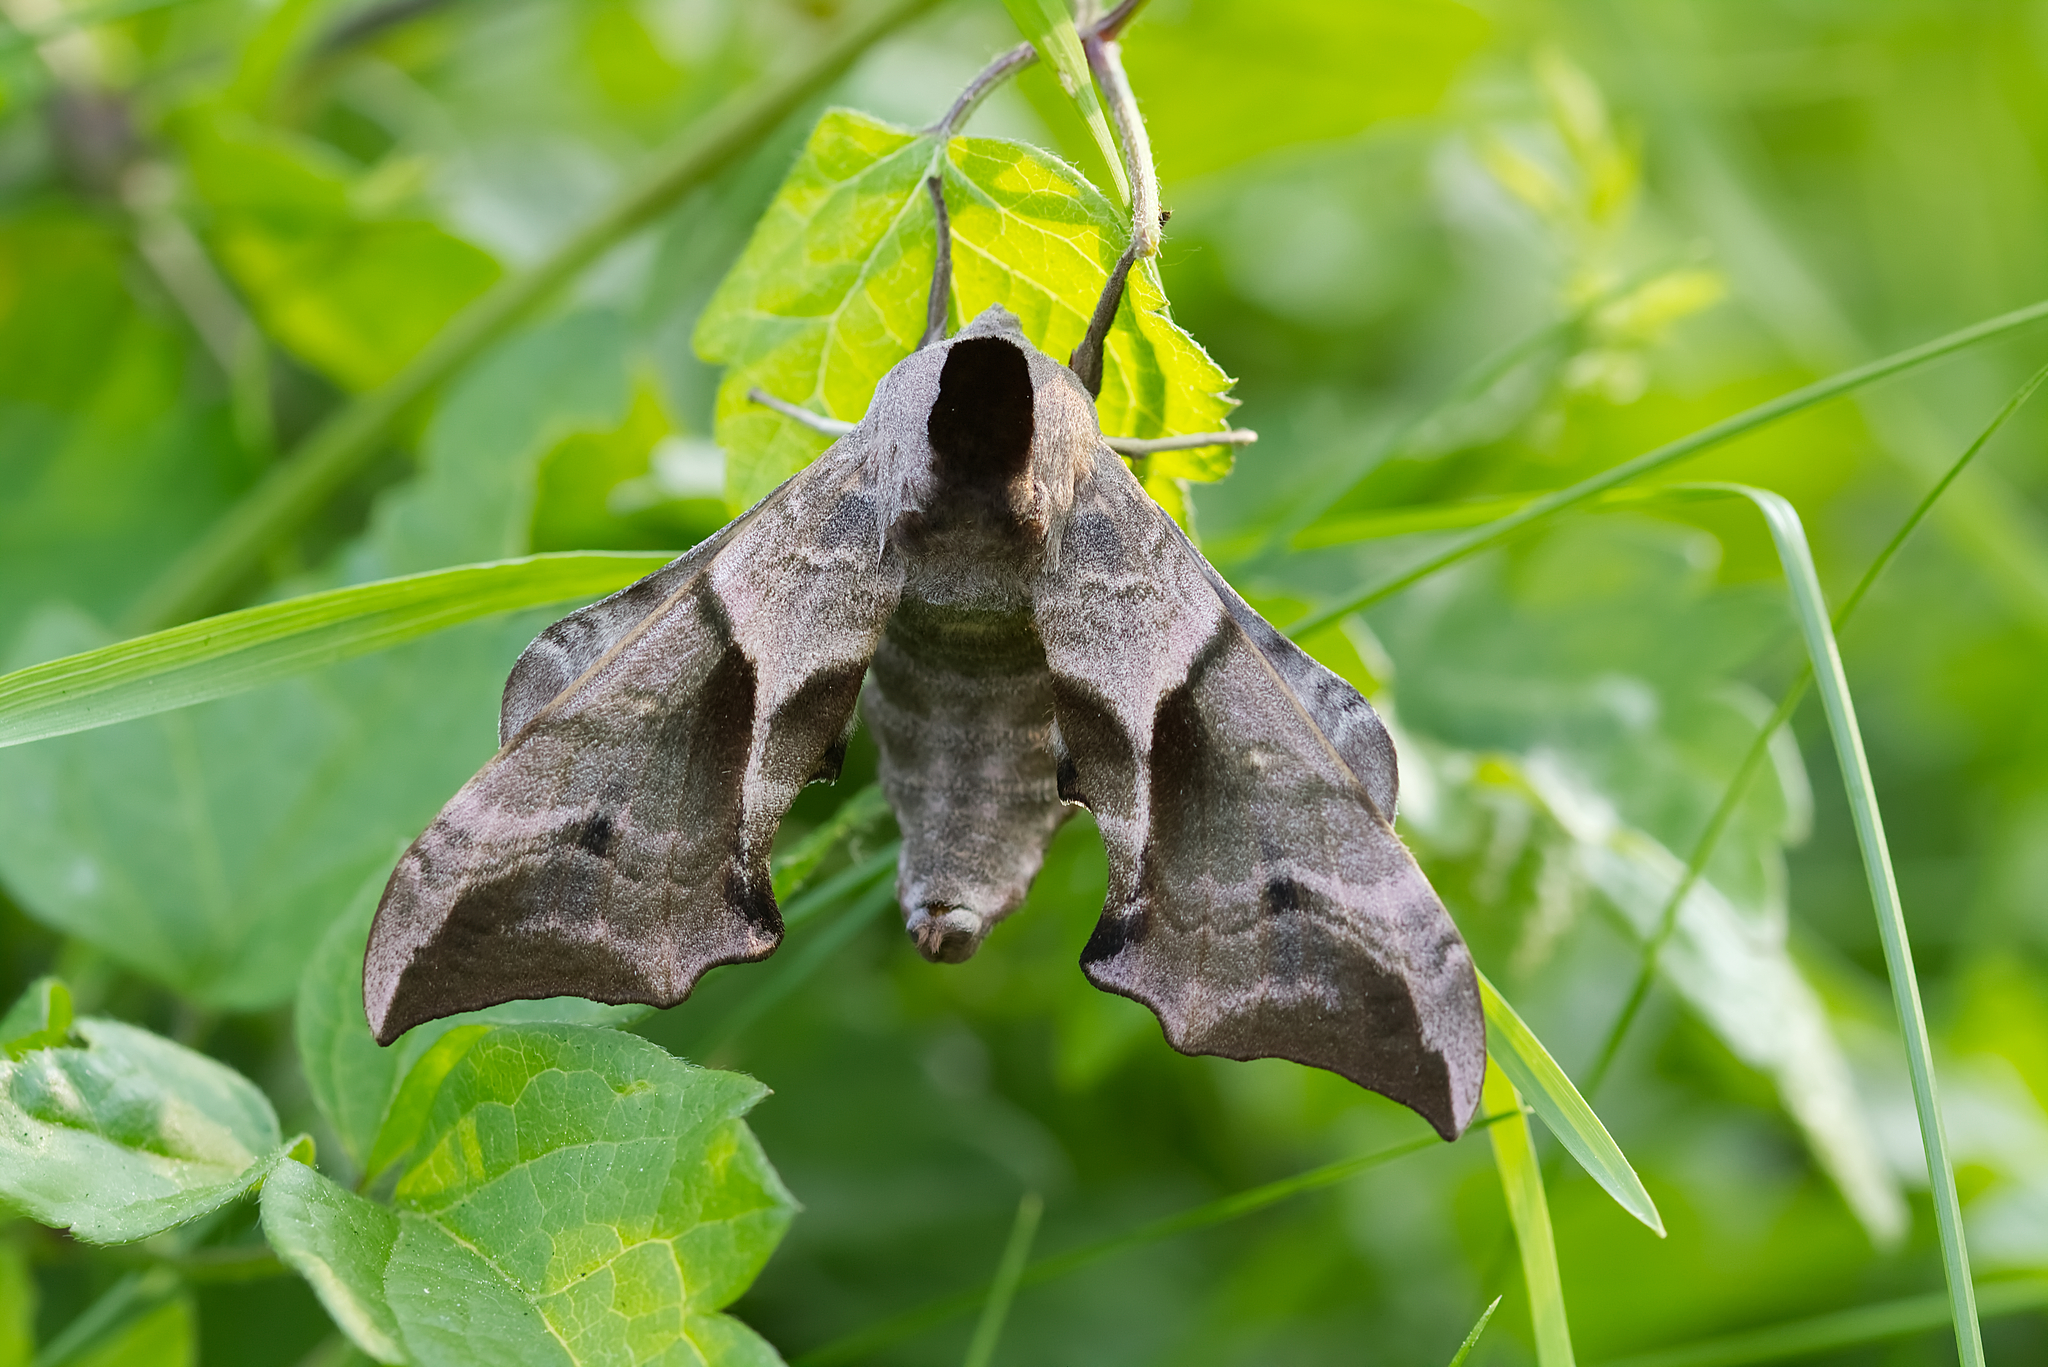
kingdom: Animalia
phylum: Arthropoda
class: Insecta
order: Lepidoptera
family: Sphingidae
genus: Smerinthus
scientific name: Smerinthus ocellata
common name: Eyed hawk-moth
